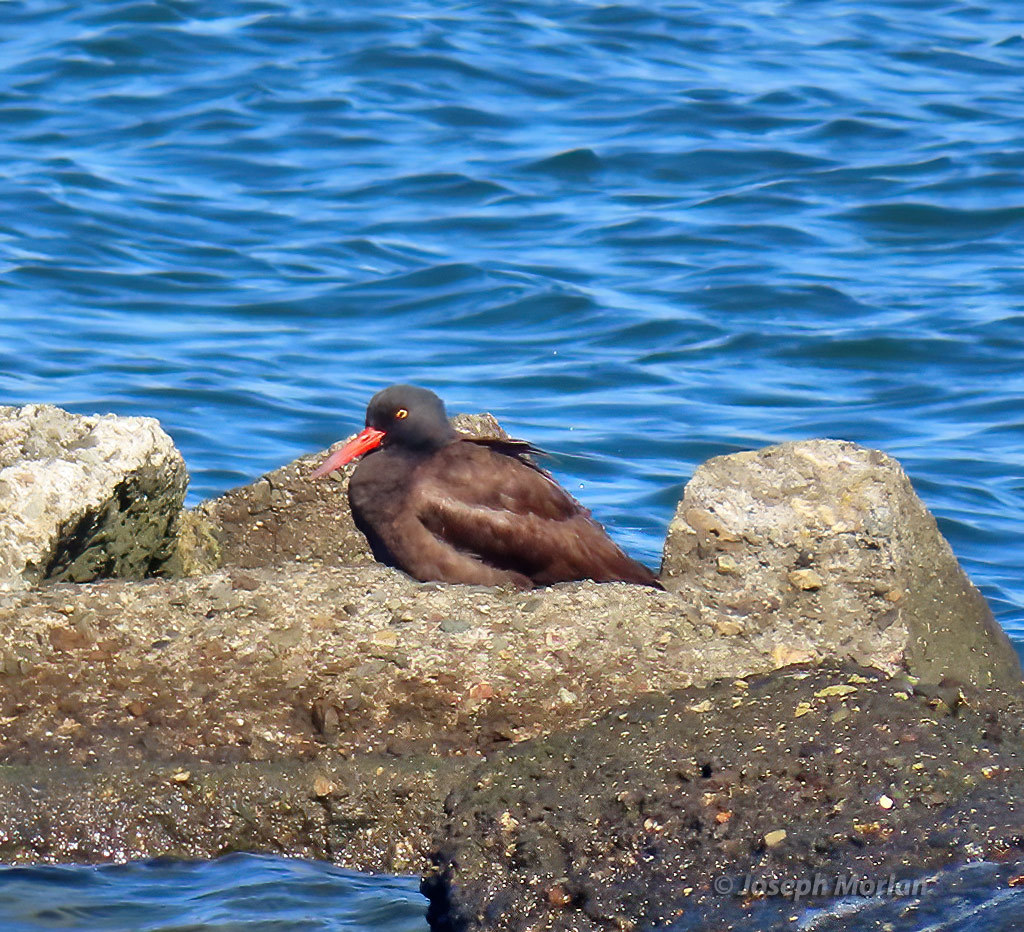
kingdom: Animalia
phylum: Chordata
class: Aves
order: Charadriiformes
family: Haematopodidae
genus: Haematopus
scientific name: Haematopus bachmani
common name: Black oystercatcher
